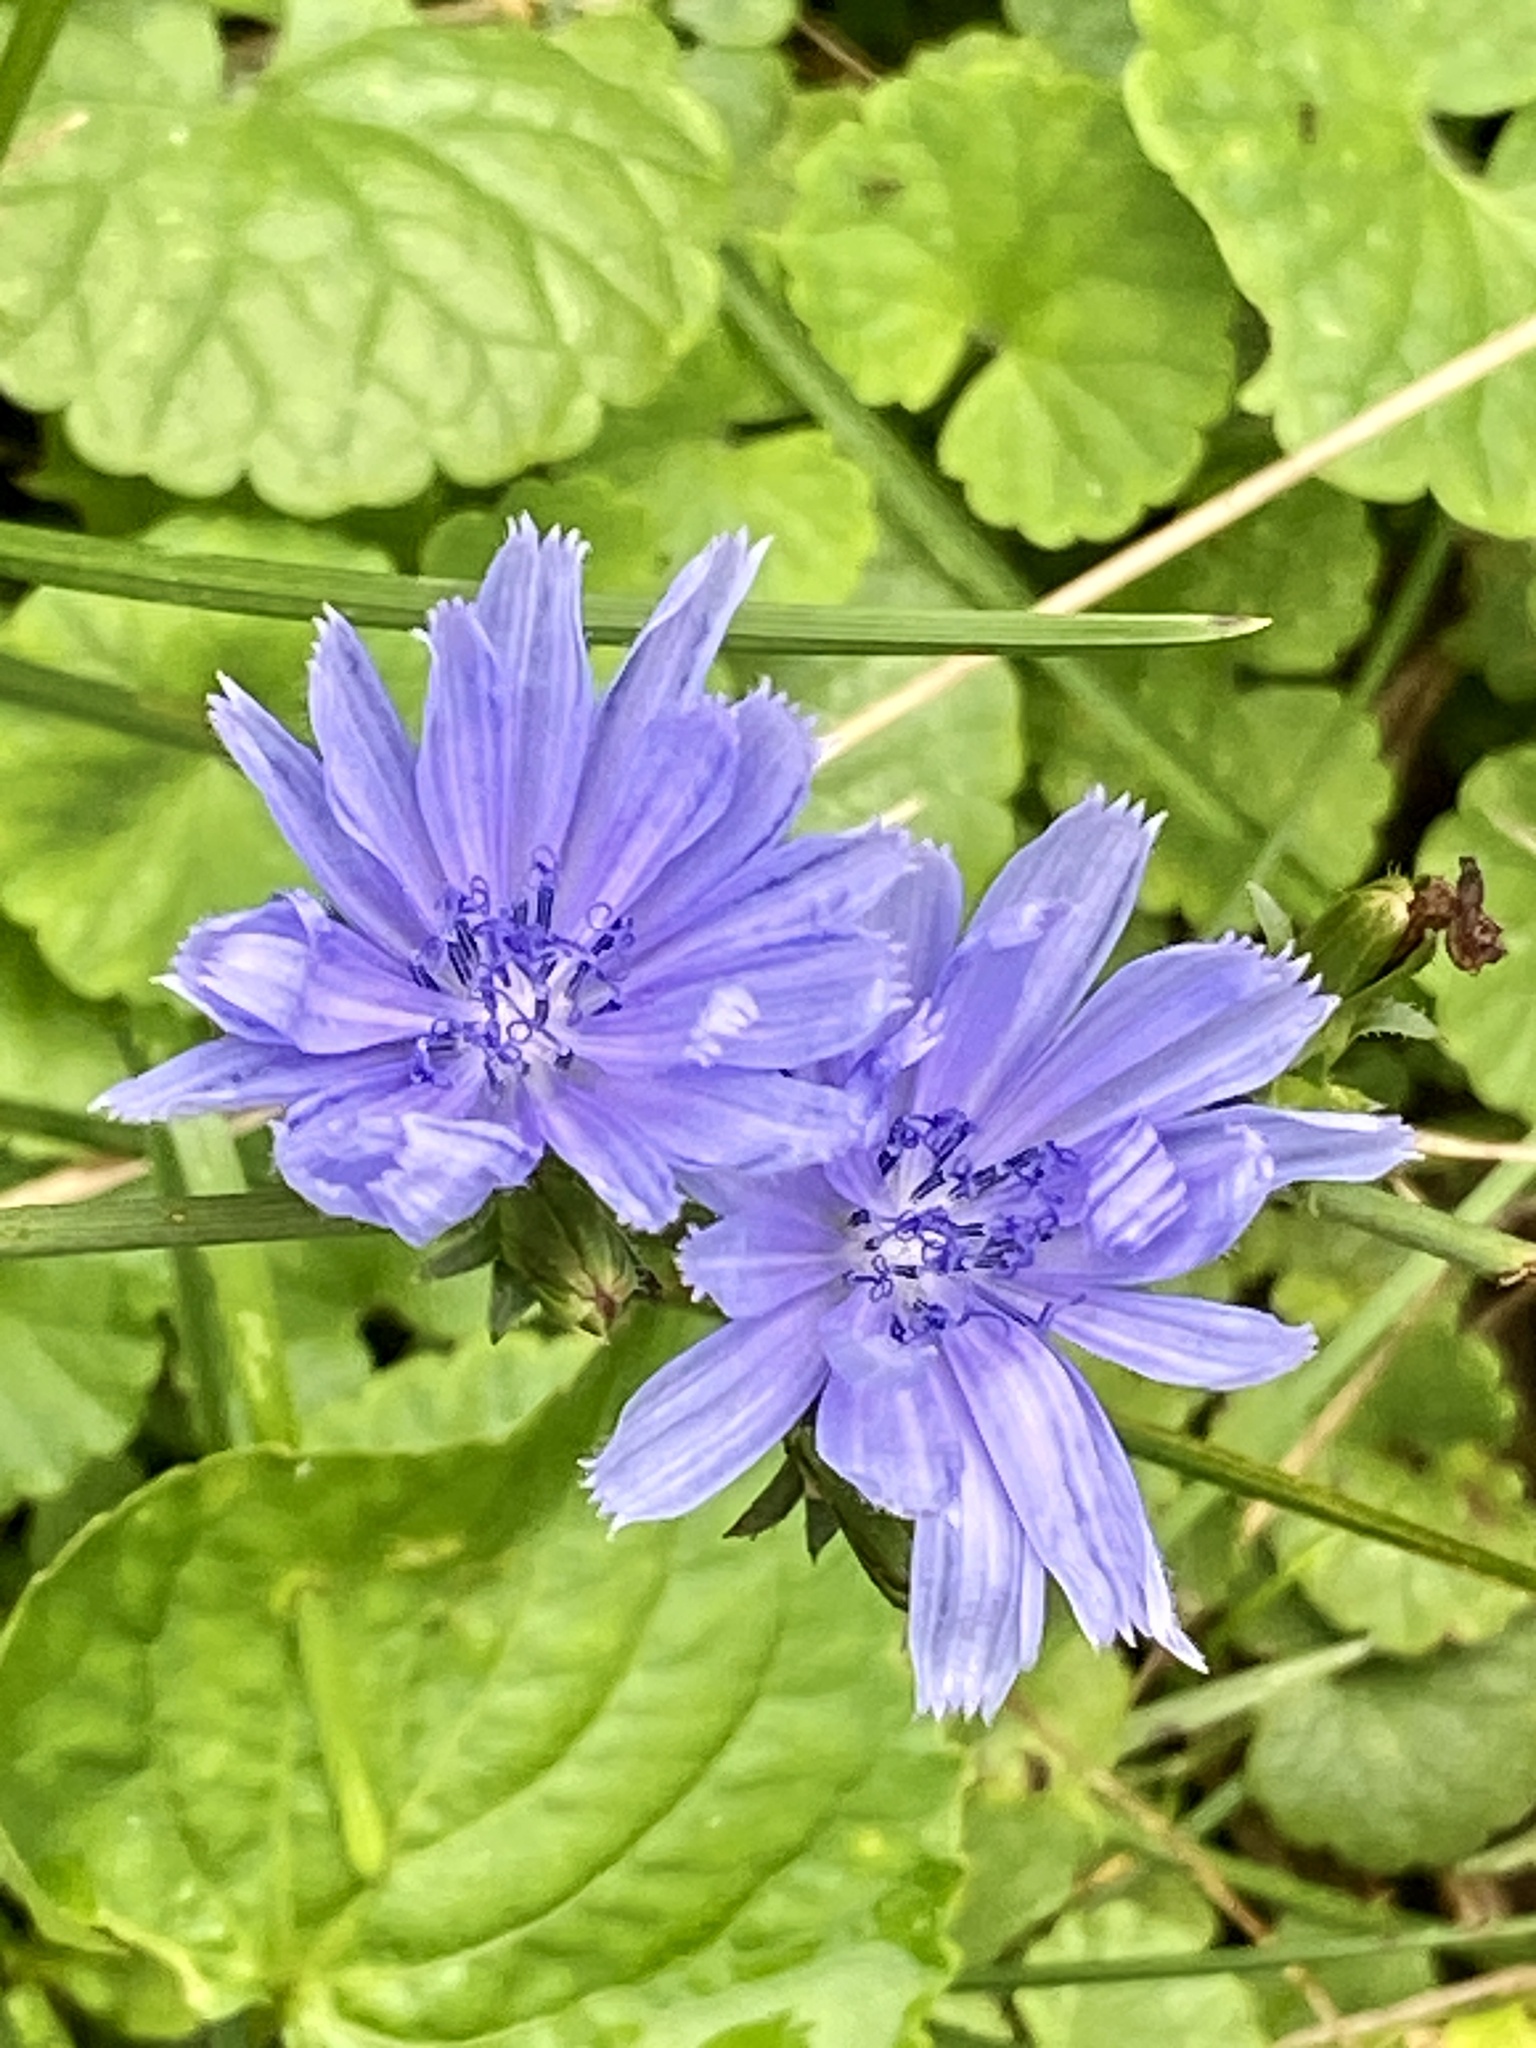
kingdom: Plantae
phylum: Tracheophyta
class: Magnoliopsida
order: Asterales
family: Asteraceae
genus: Cichorium
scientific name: Cichorium intybus
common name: Chicory
